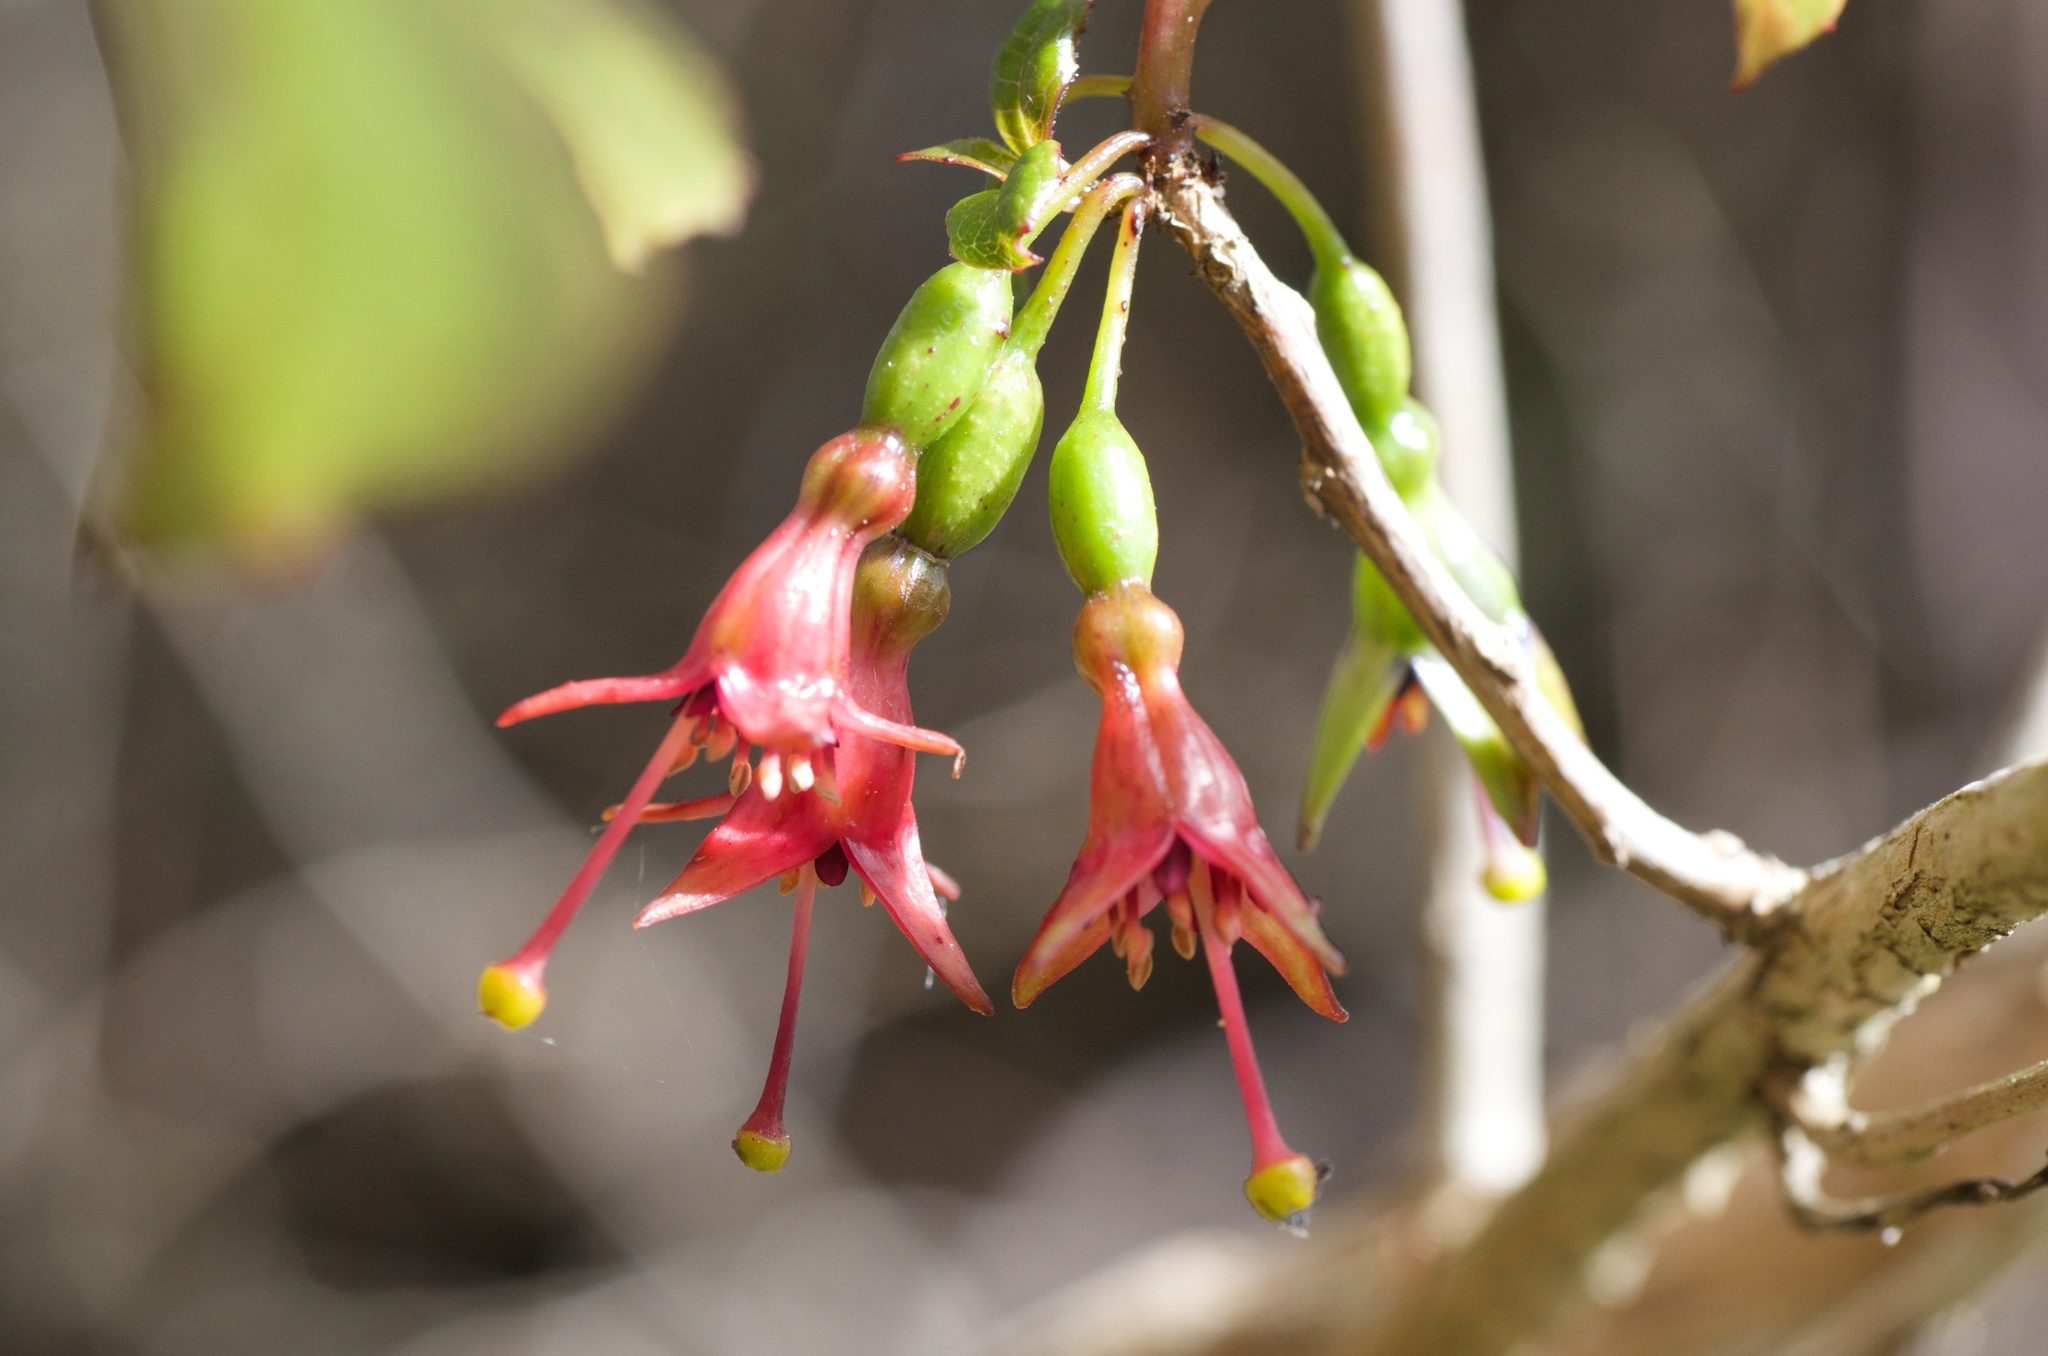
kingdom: Plantae
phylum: Tracheophyta
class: Magnoliopsida
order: Myrtales
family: Onagraceae
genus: Fuchsia
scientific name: Fuchsia excorticata
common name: Tree fuchsia
